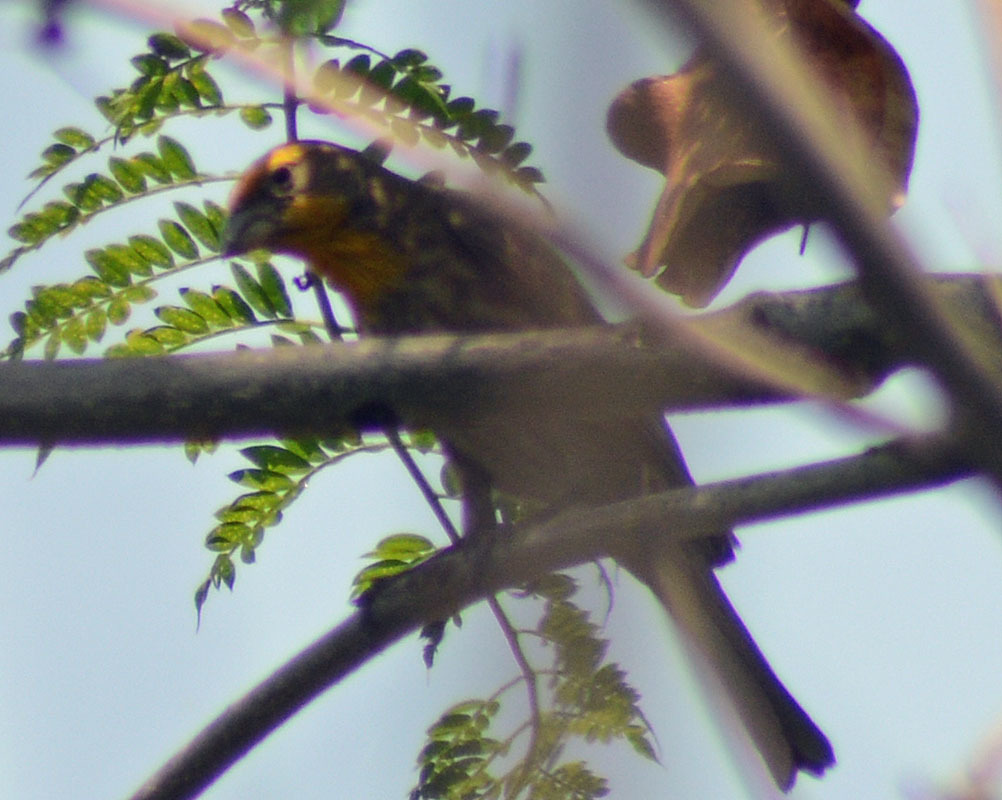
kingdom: Animalia
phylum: Chordata
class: Aves
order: Passeriformes
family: Fringillidae
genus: Haemorhous
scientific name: Haemorhous mexicanus
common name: House finch
